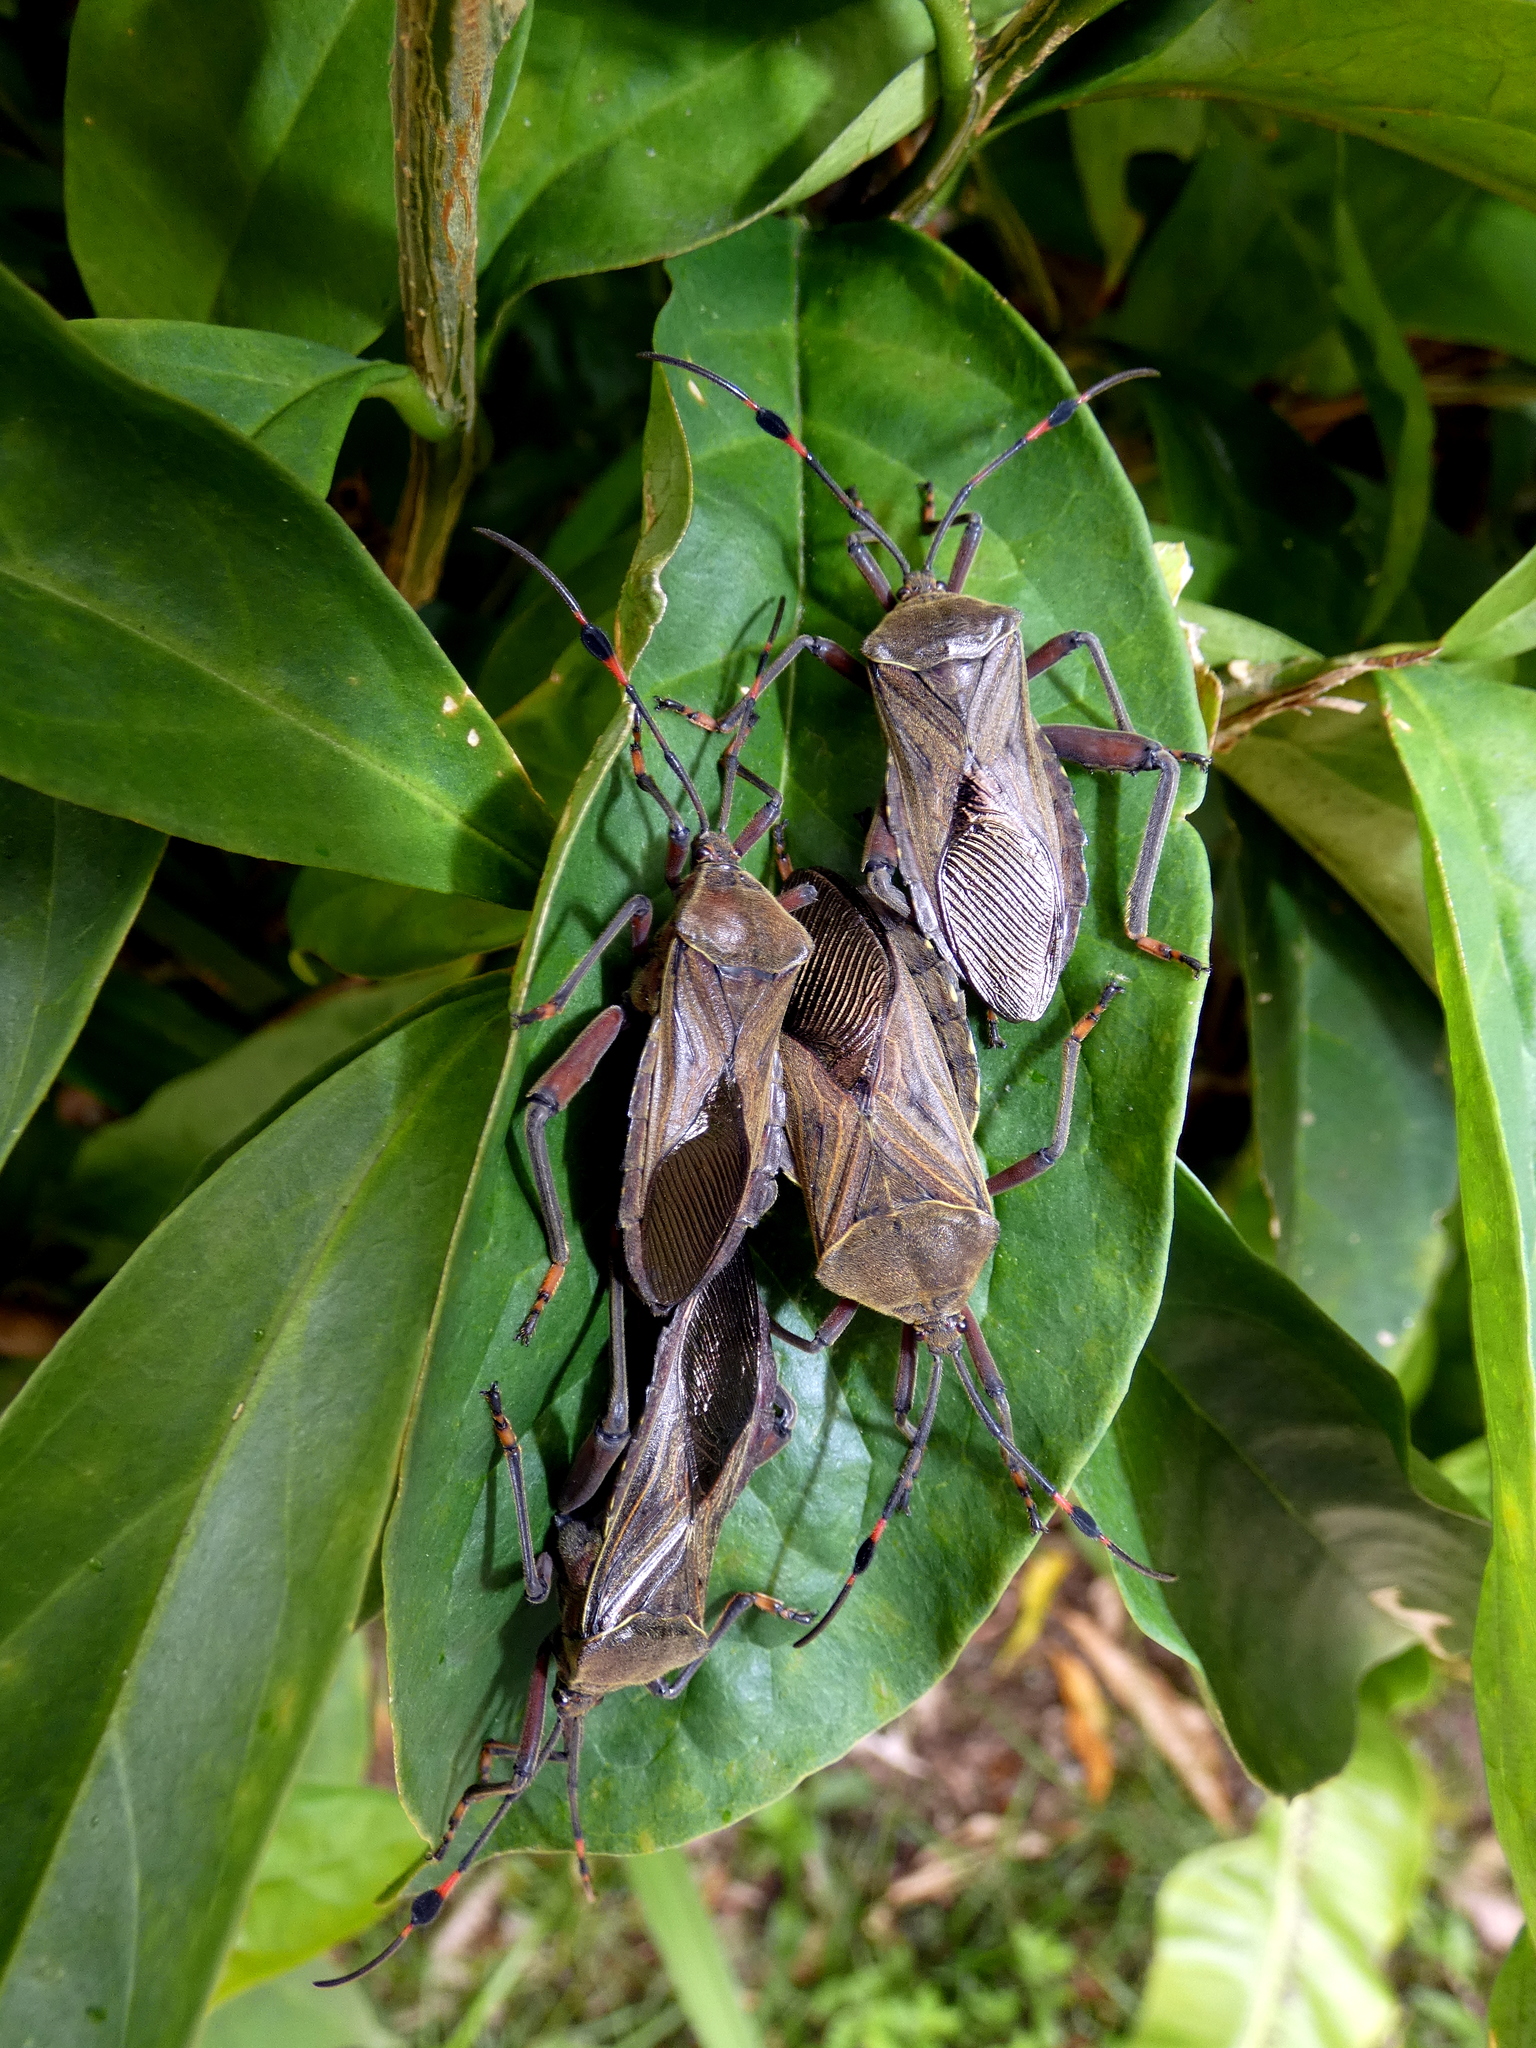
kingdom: Animalia
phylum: Arthropoda
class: Insecta
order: Hemiptera
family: Coreidae
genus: Pachylis
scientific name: Pachylis nervosus
